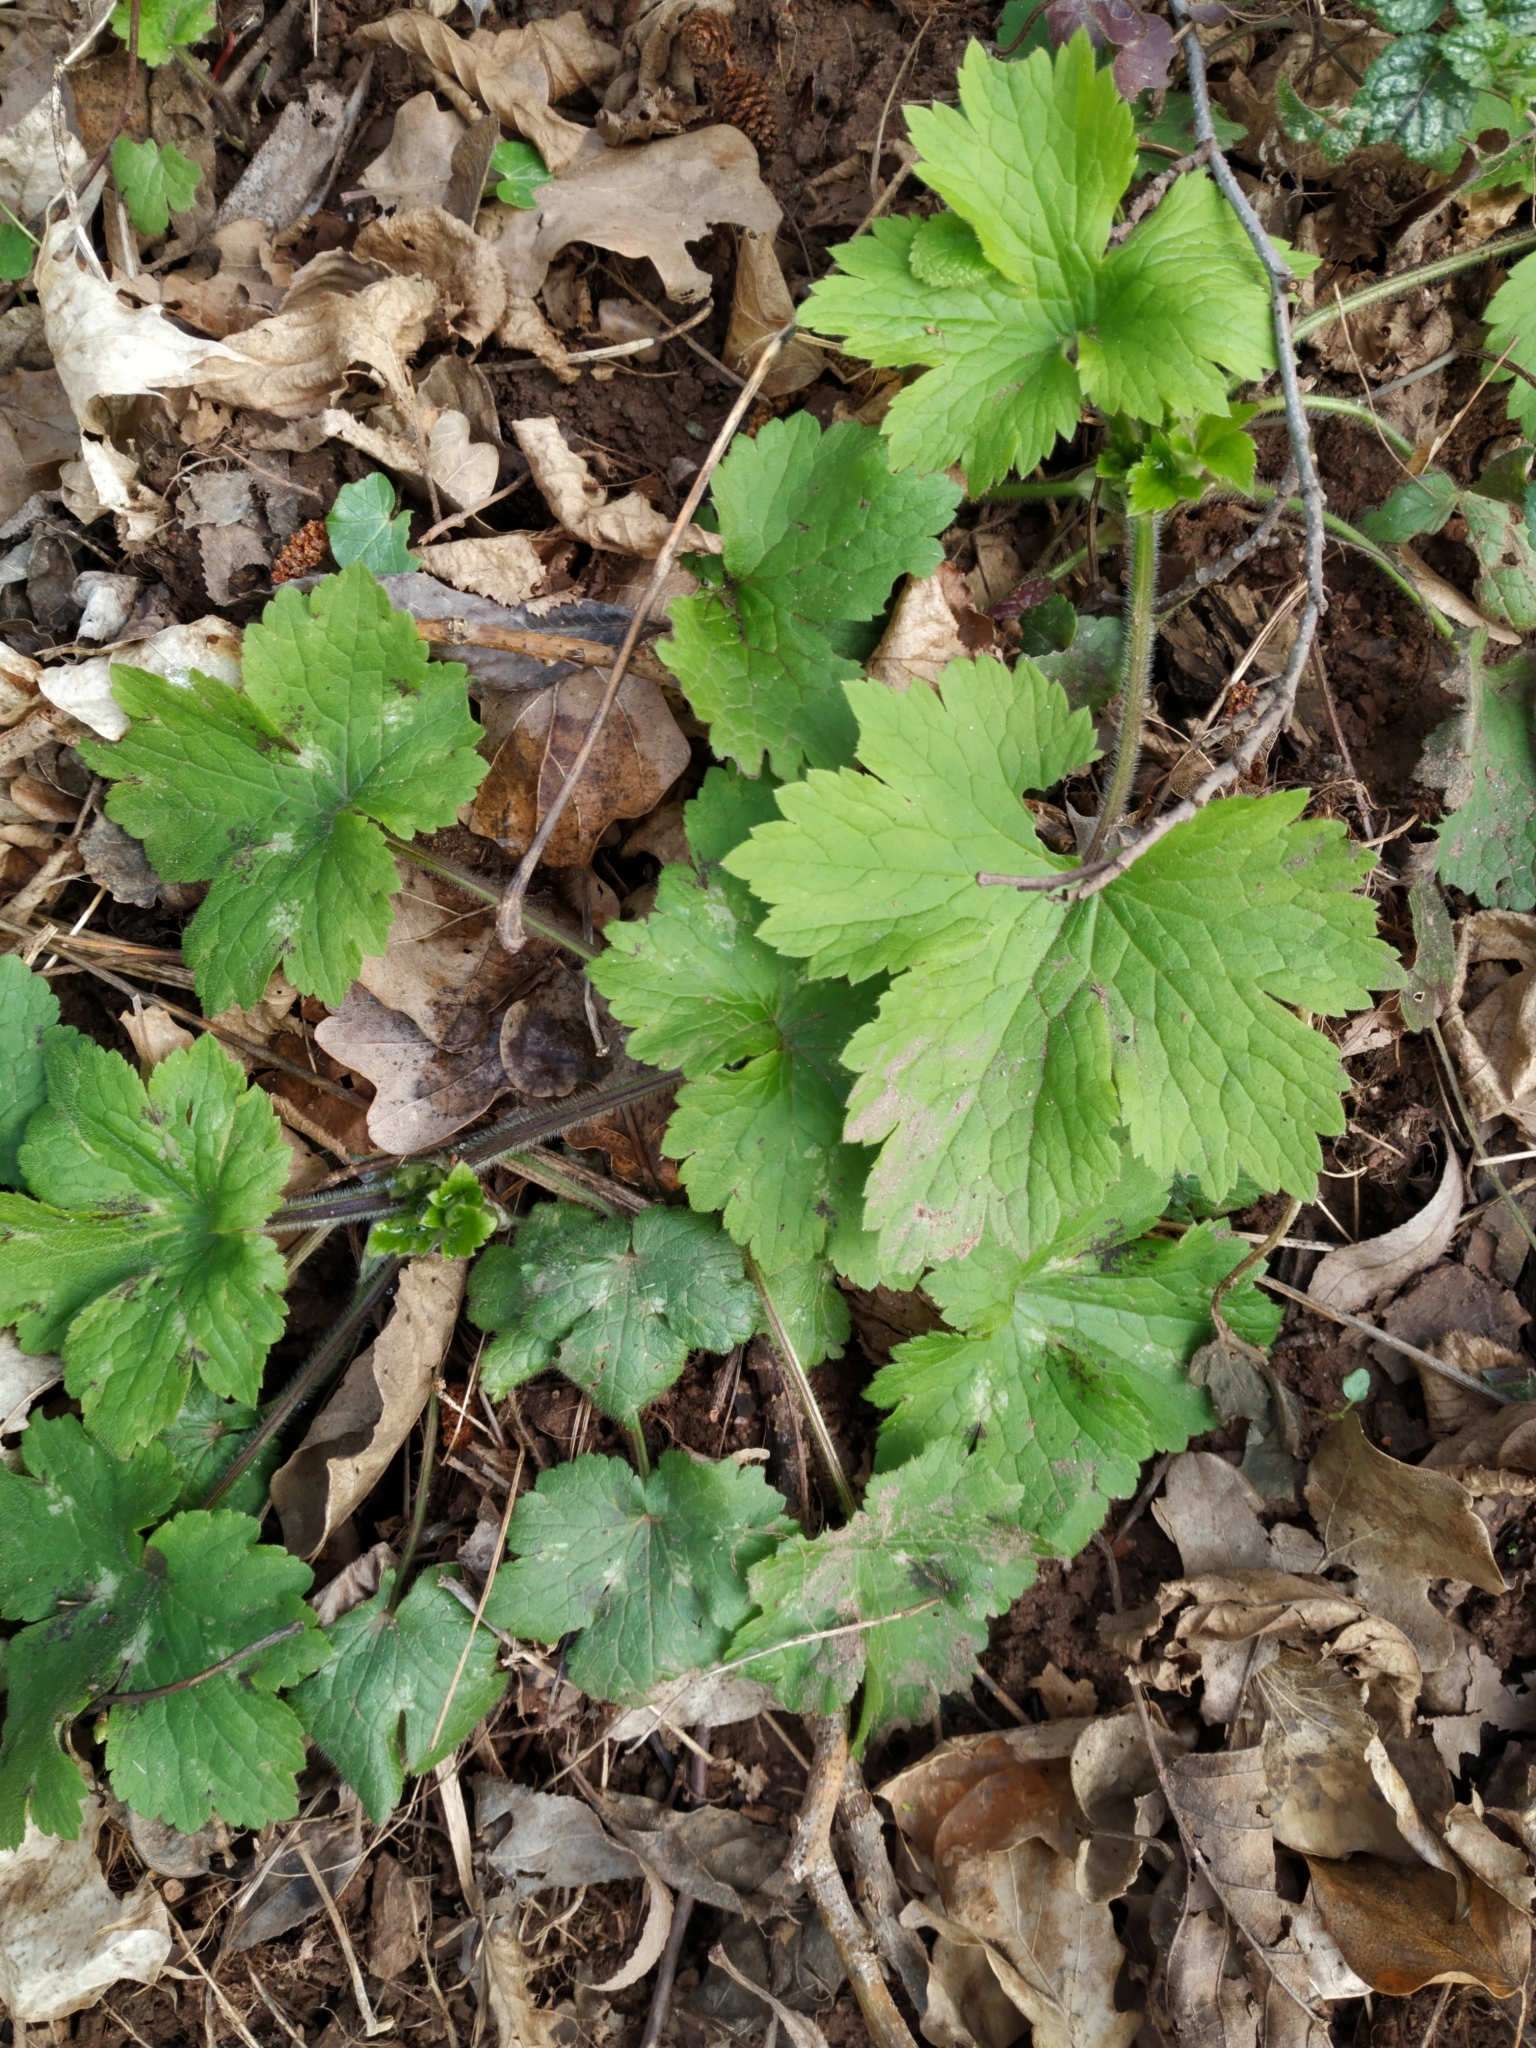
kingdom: Plantae
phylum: Tracheophyta
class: Magnoliopsida
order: Ranunculales
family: Ranunculaceae
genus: Ranunculus
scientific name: Ranunculus lanuginosus
